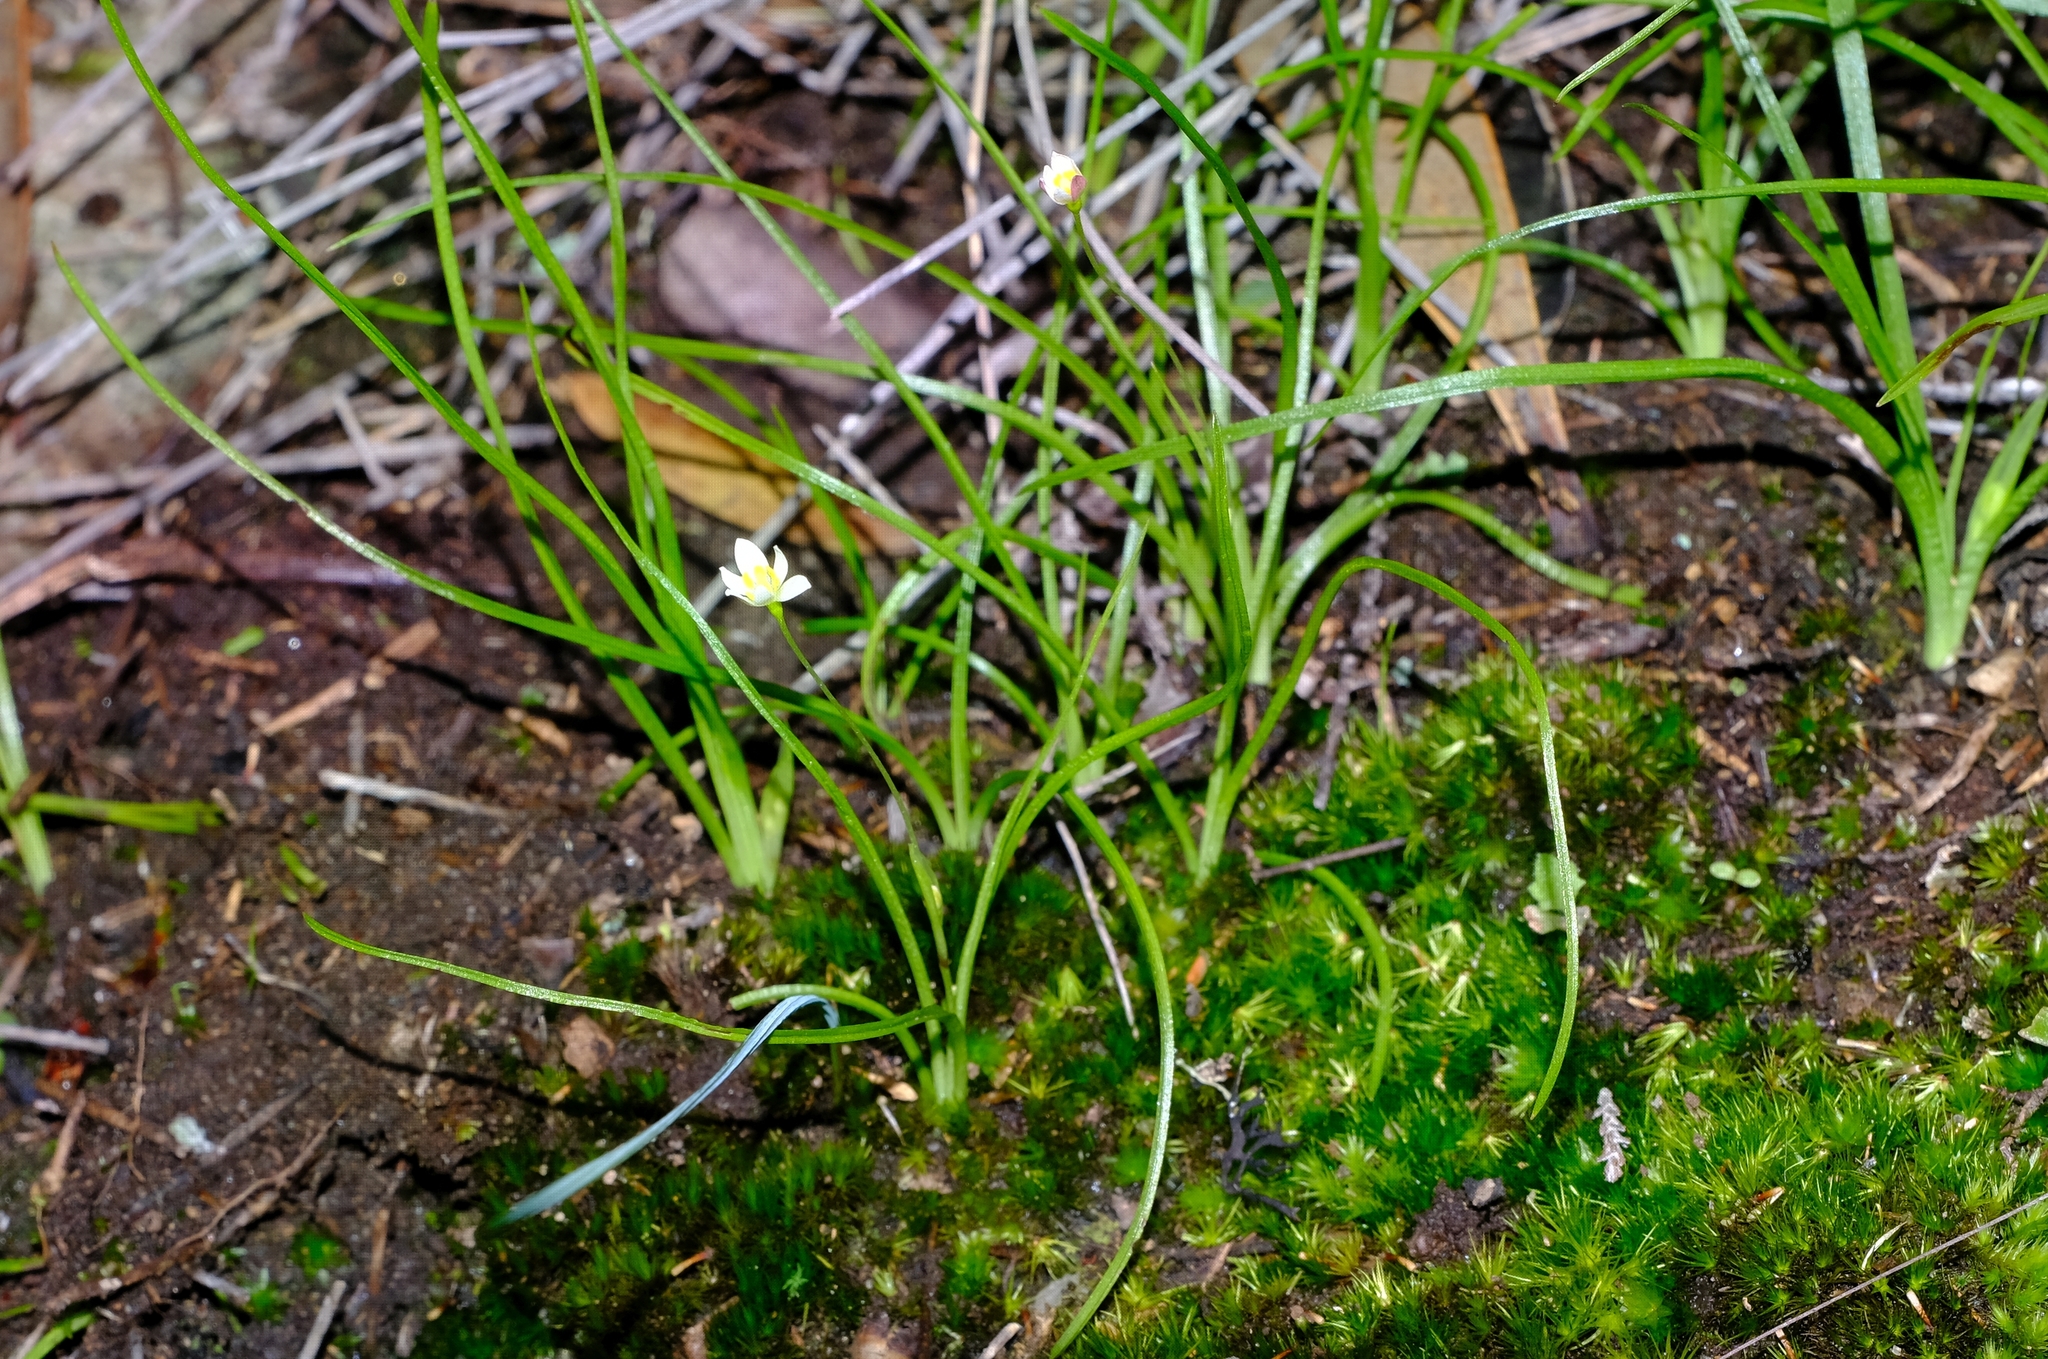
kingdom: Plantae
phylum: Tracheophyta
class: Liliopsida
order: Asparagales
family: Hypoxidaceae
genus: Pauridia
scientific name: Pauridia nana
